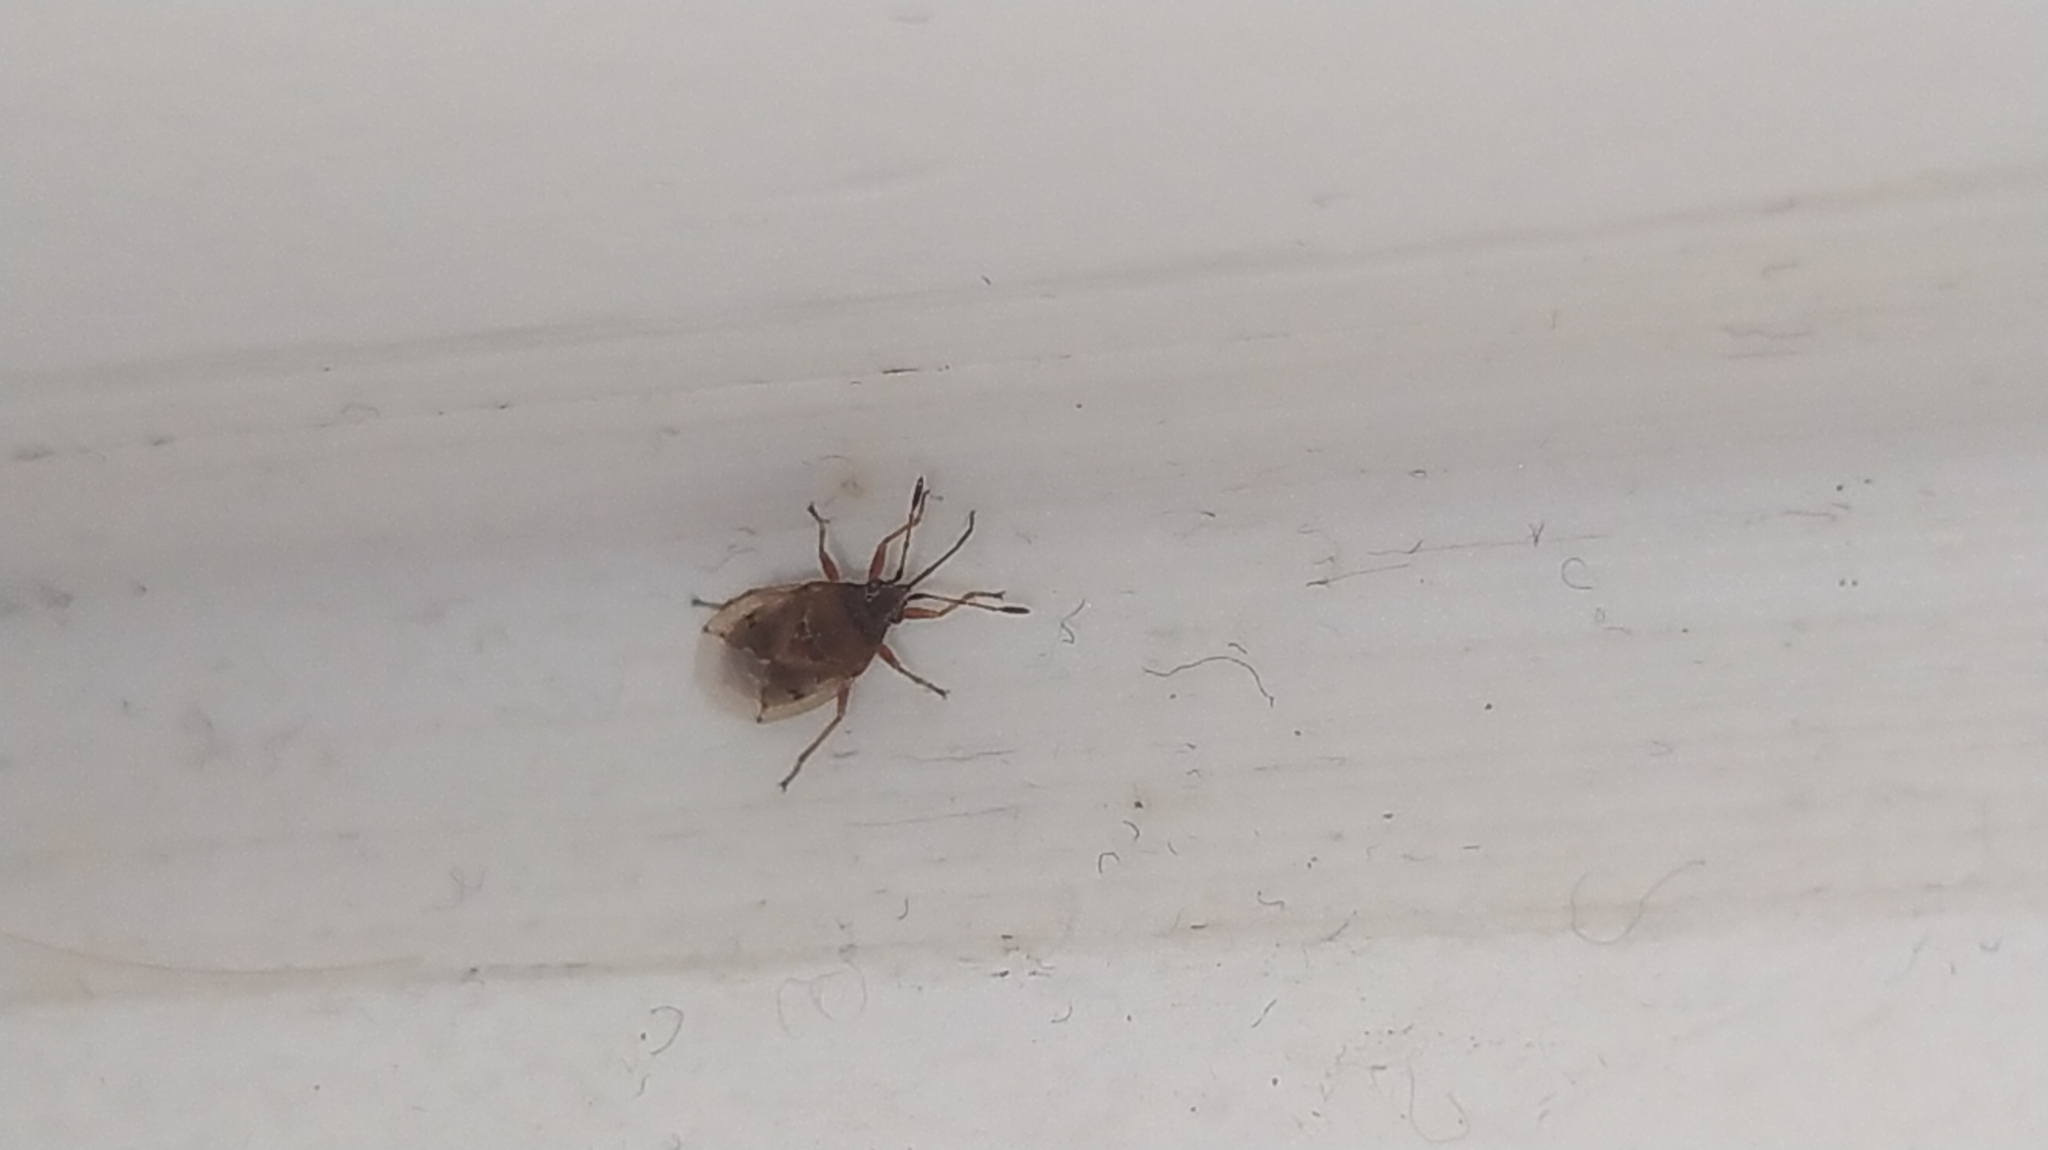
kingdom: Animalia
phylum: Arthropoda
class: Insecta
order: Hemiptera
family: Lygaeidae
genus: Kleidocerys
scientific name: Kleidocerys resedae
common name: Birch catkin bug
